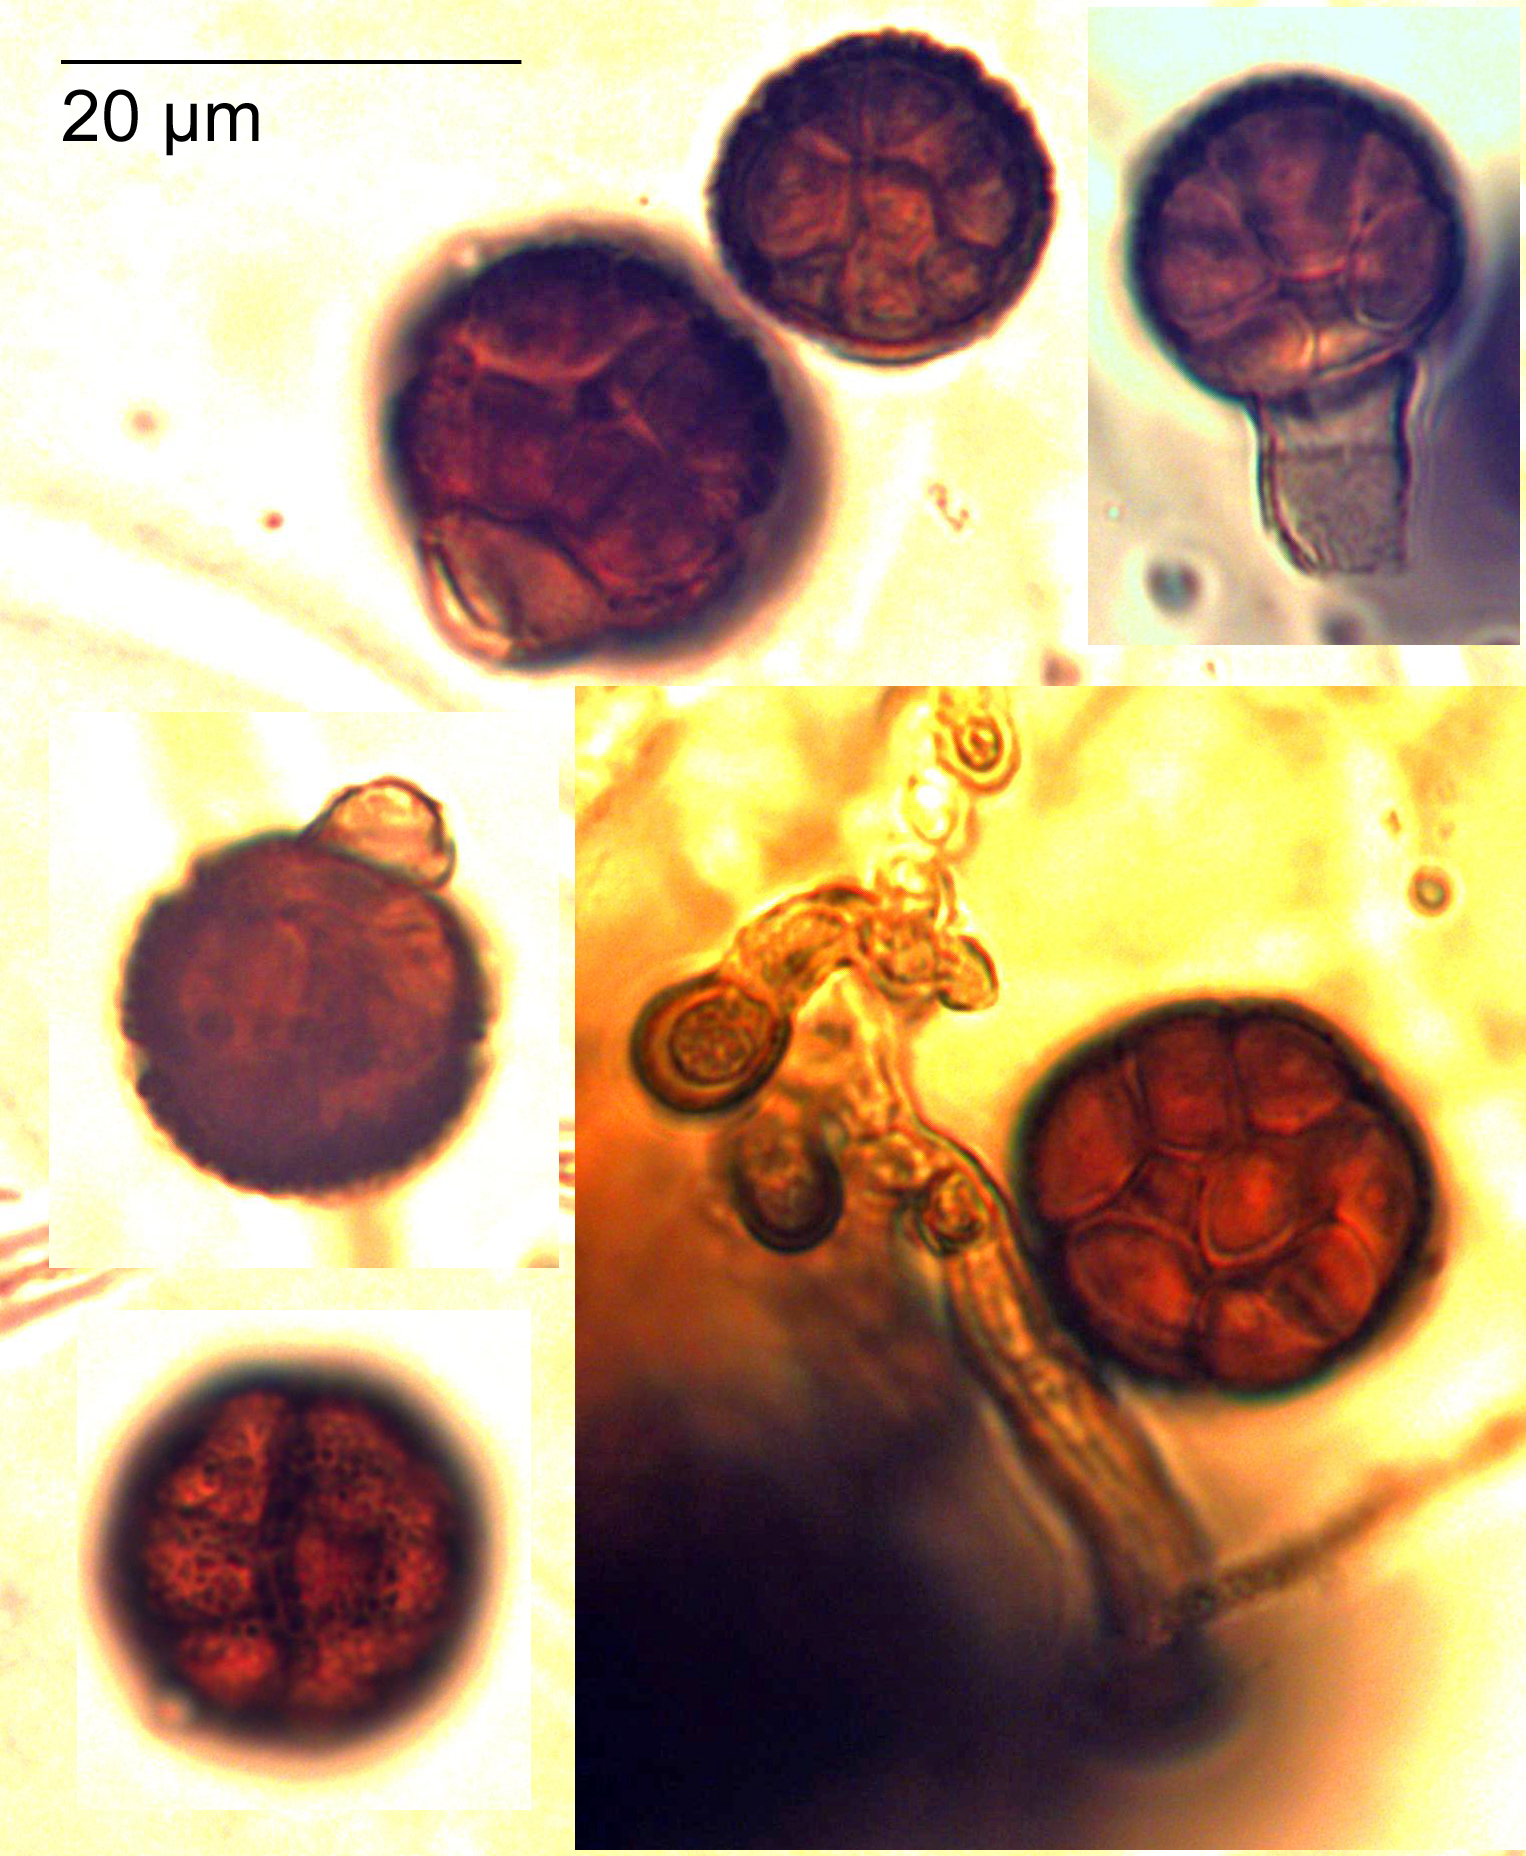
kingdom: Fungi
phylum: Ascomycota
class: Dothideomycetes
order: Pleosporales
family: Didymellaceae
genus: Epicoccum
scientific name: Epicoccum nigrum
